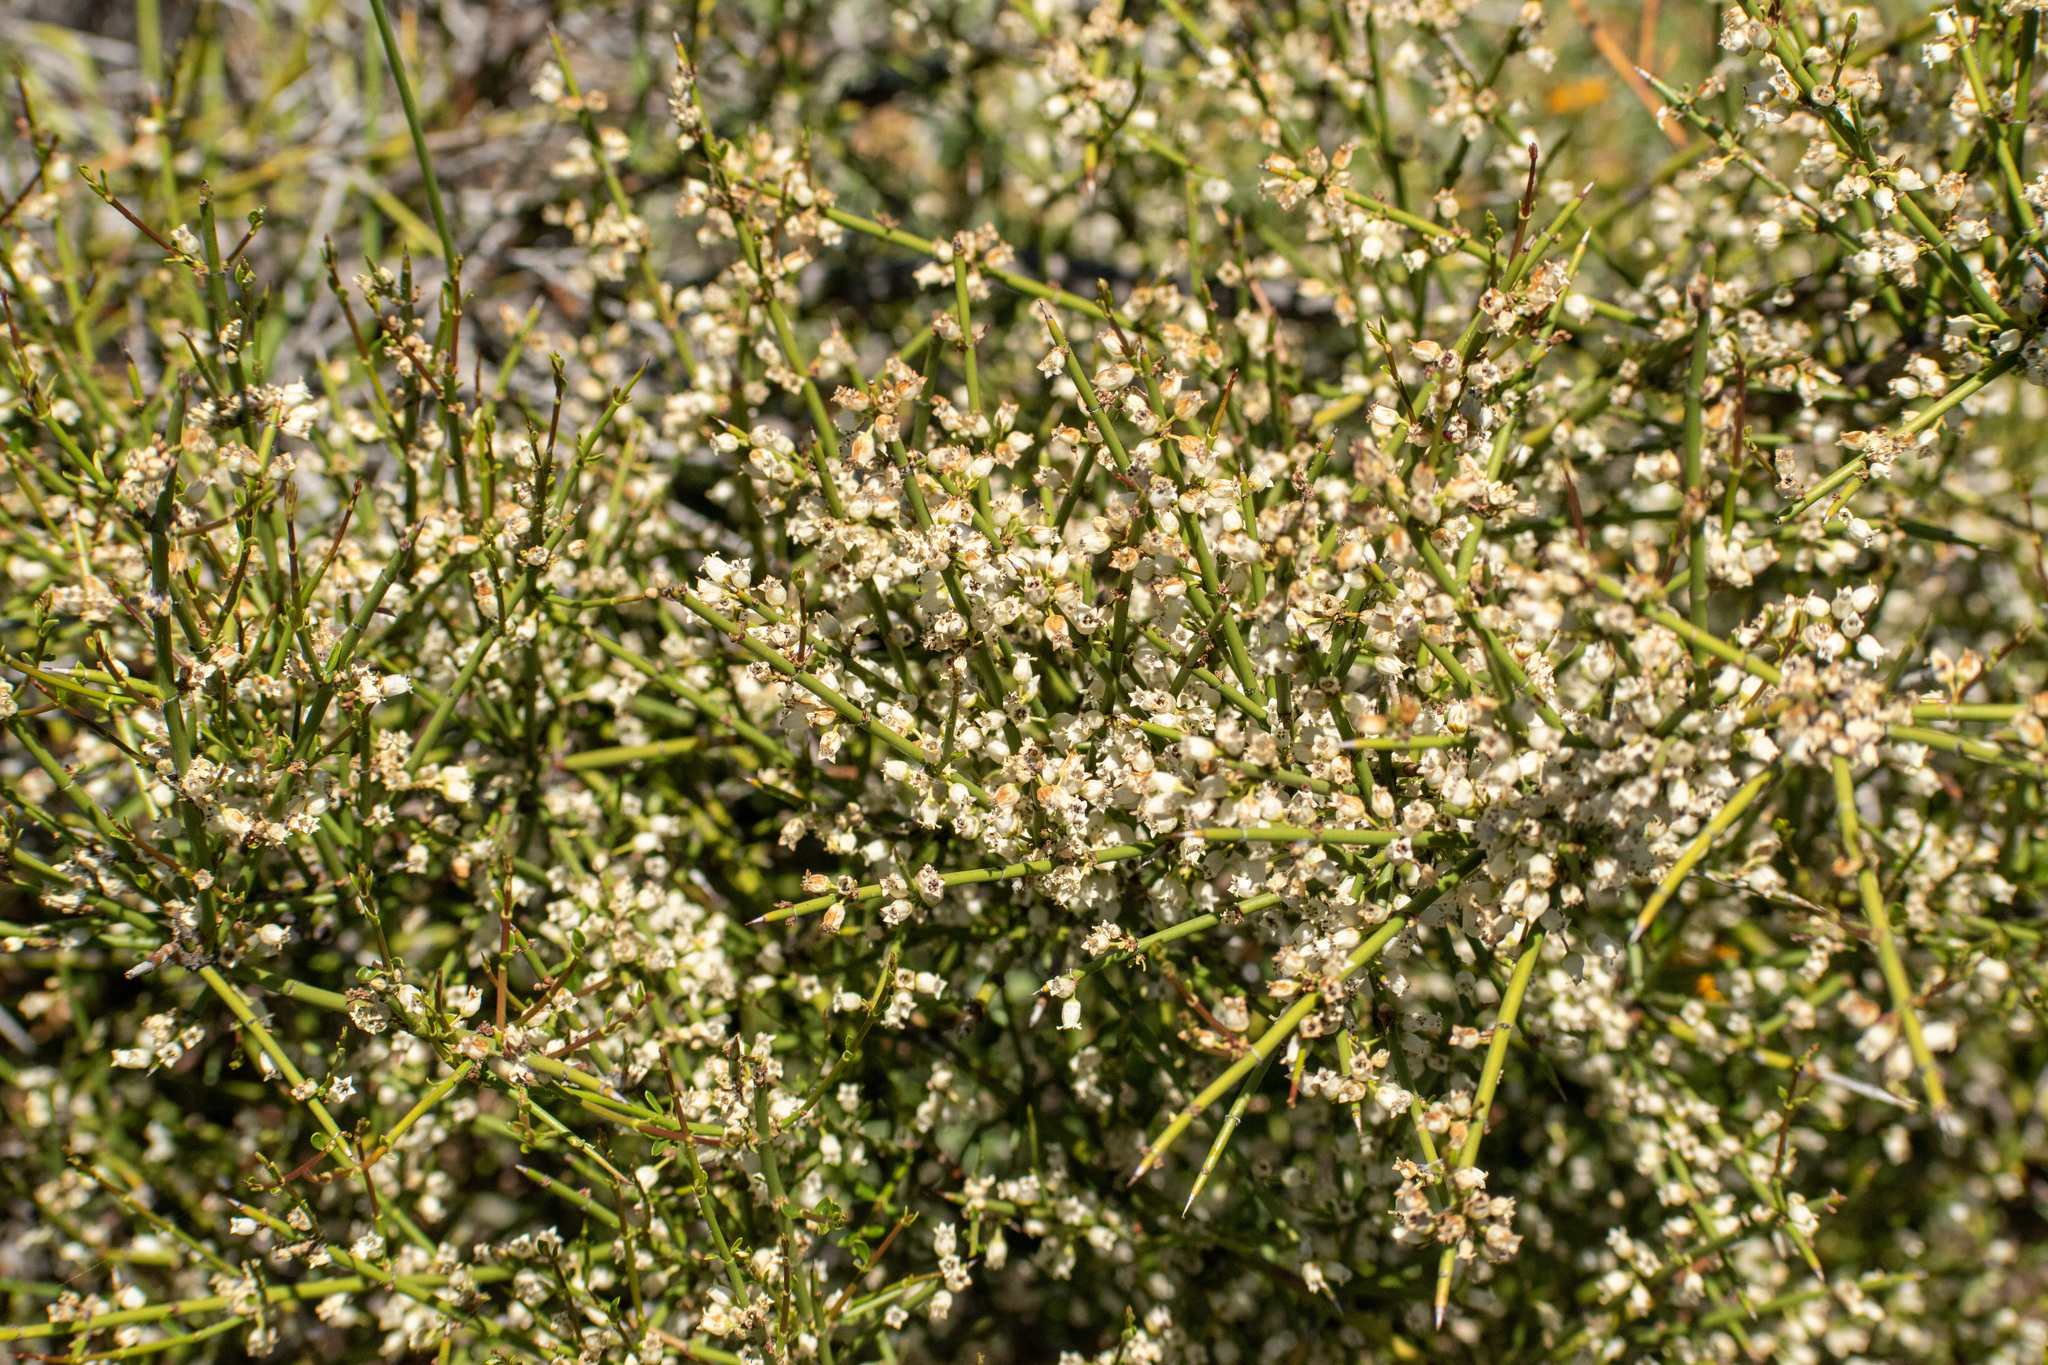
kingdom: Plantae
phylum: Tracheophyta
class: Magnoliopsida
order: Rosales
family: Rhamnaceae
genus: Discaria
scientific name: Discaria articulata
